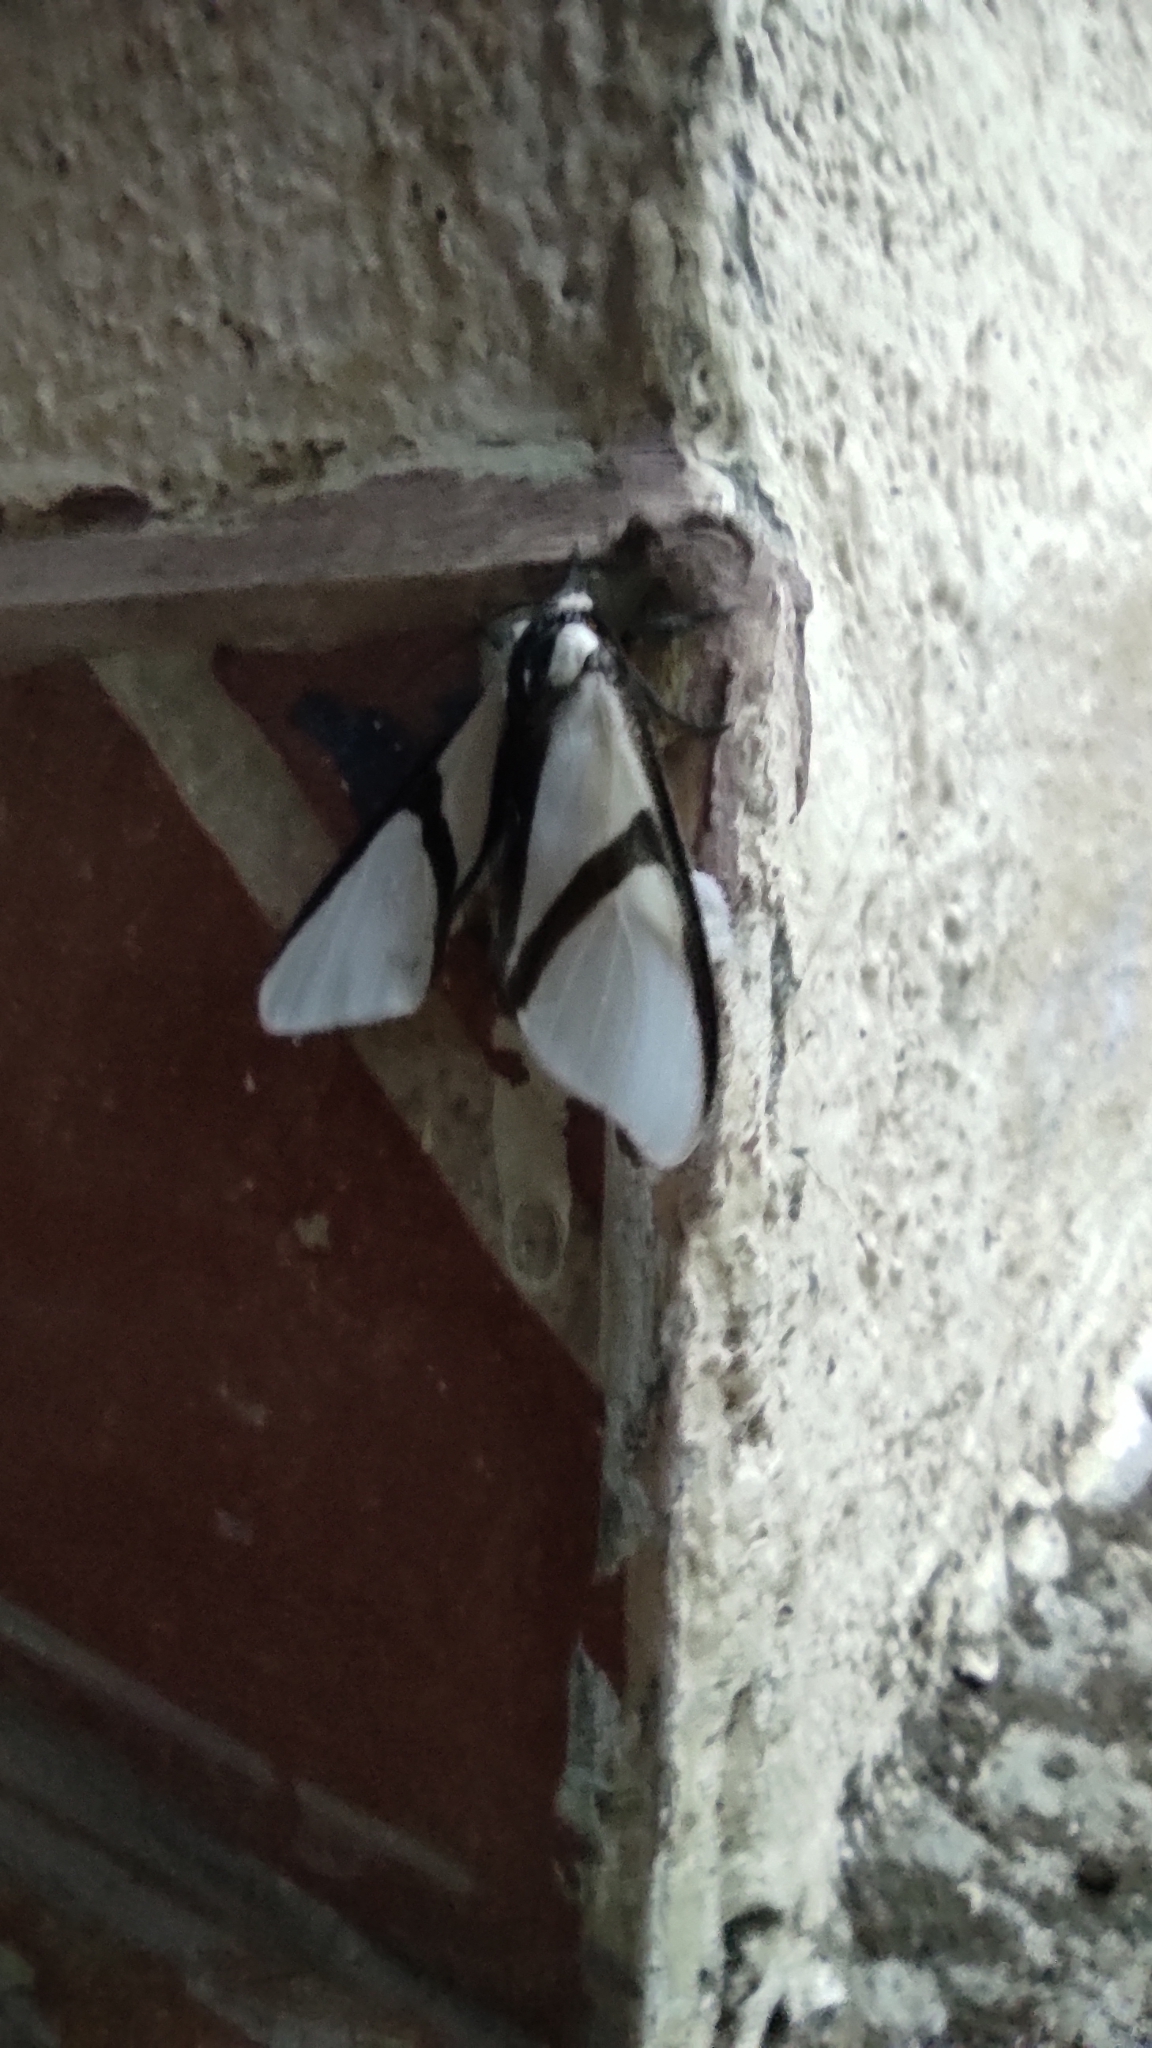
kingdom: Animalia
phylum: Arthropoda
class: Insecta
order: Lepidoptera
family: Erebidae
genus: Turuptiana
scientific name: Turuptiana annesmithae
